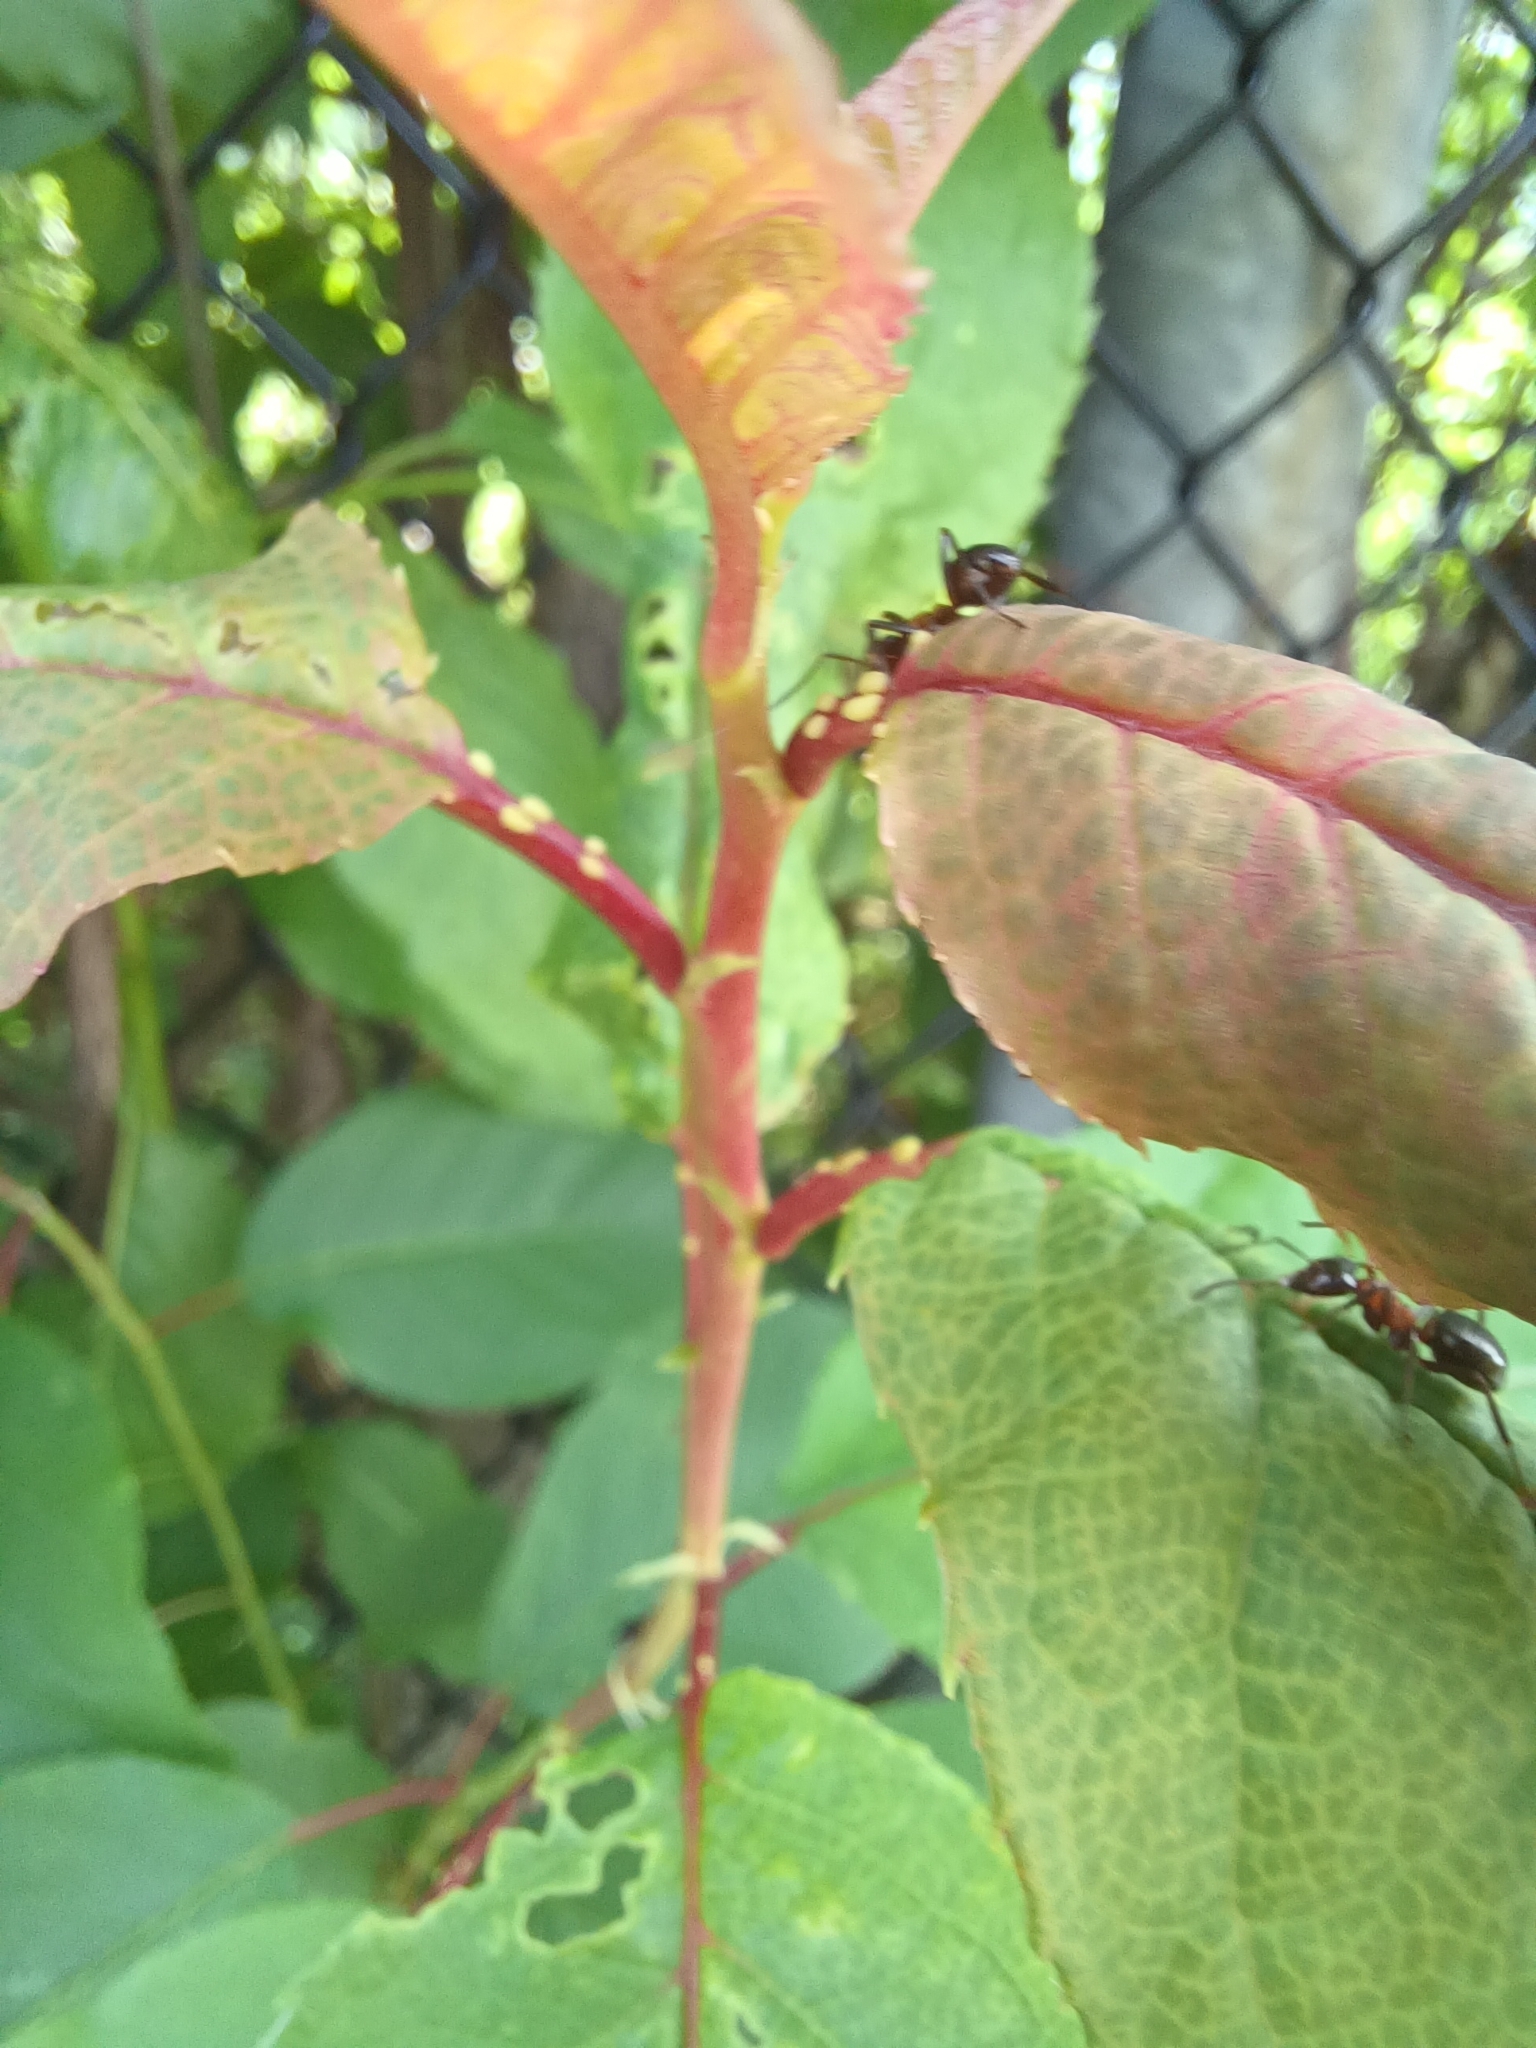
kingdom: Animalia
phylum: Arthropoda
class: Insecta
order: Hymenoptera
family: Formicidae
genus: Formica
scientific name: Formica ulkei
